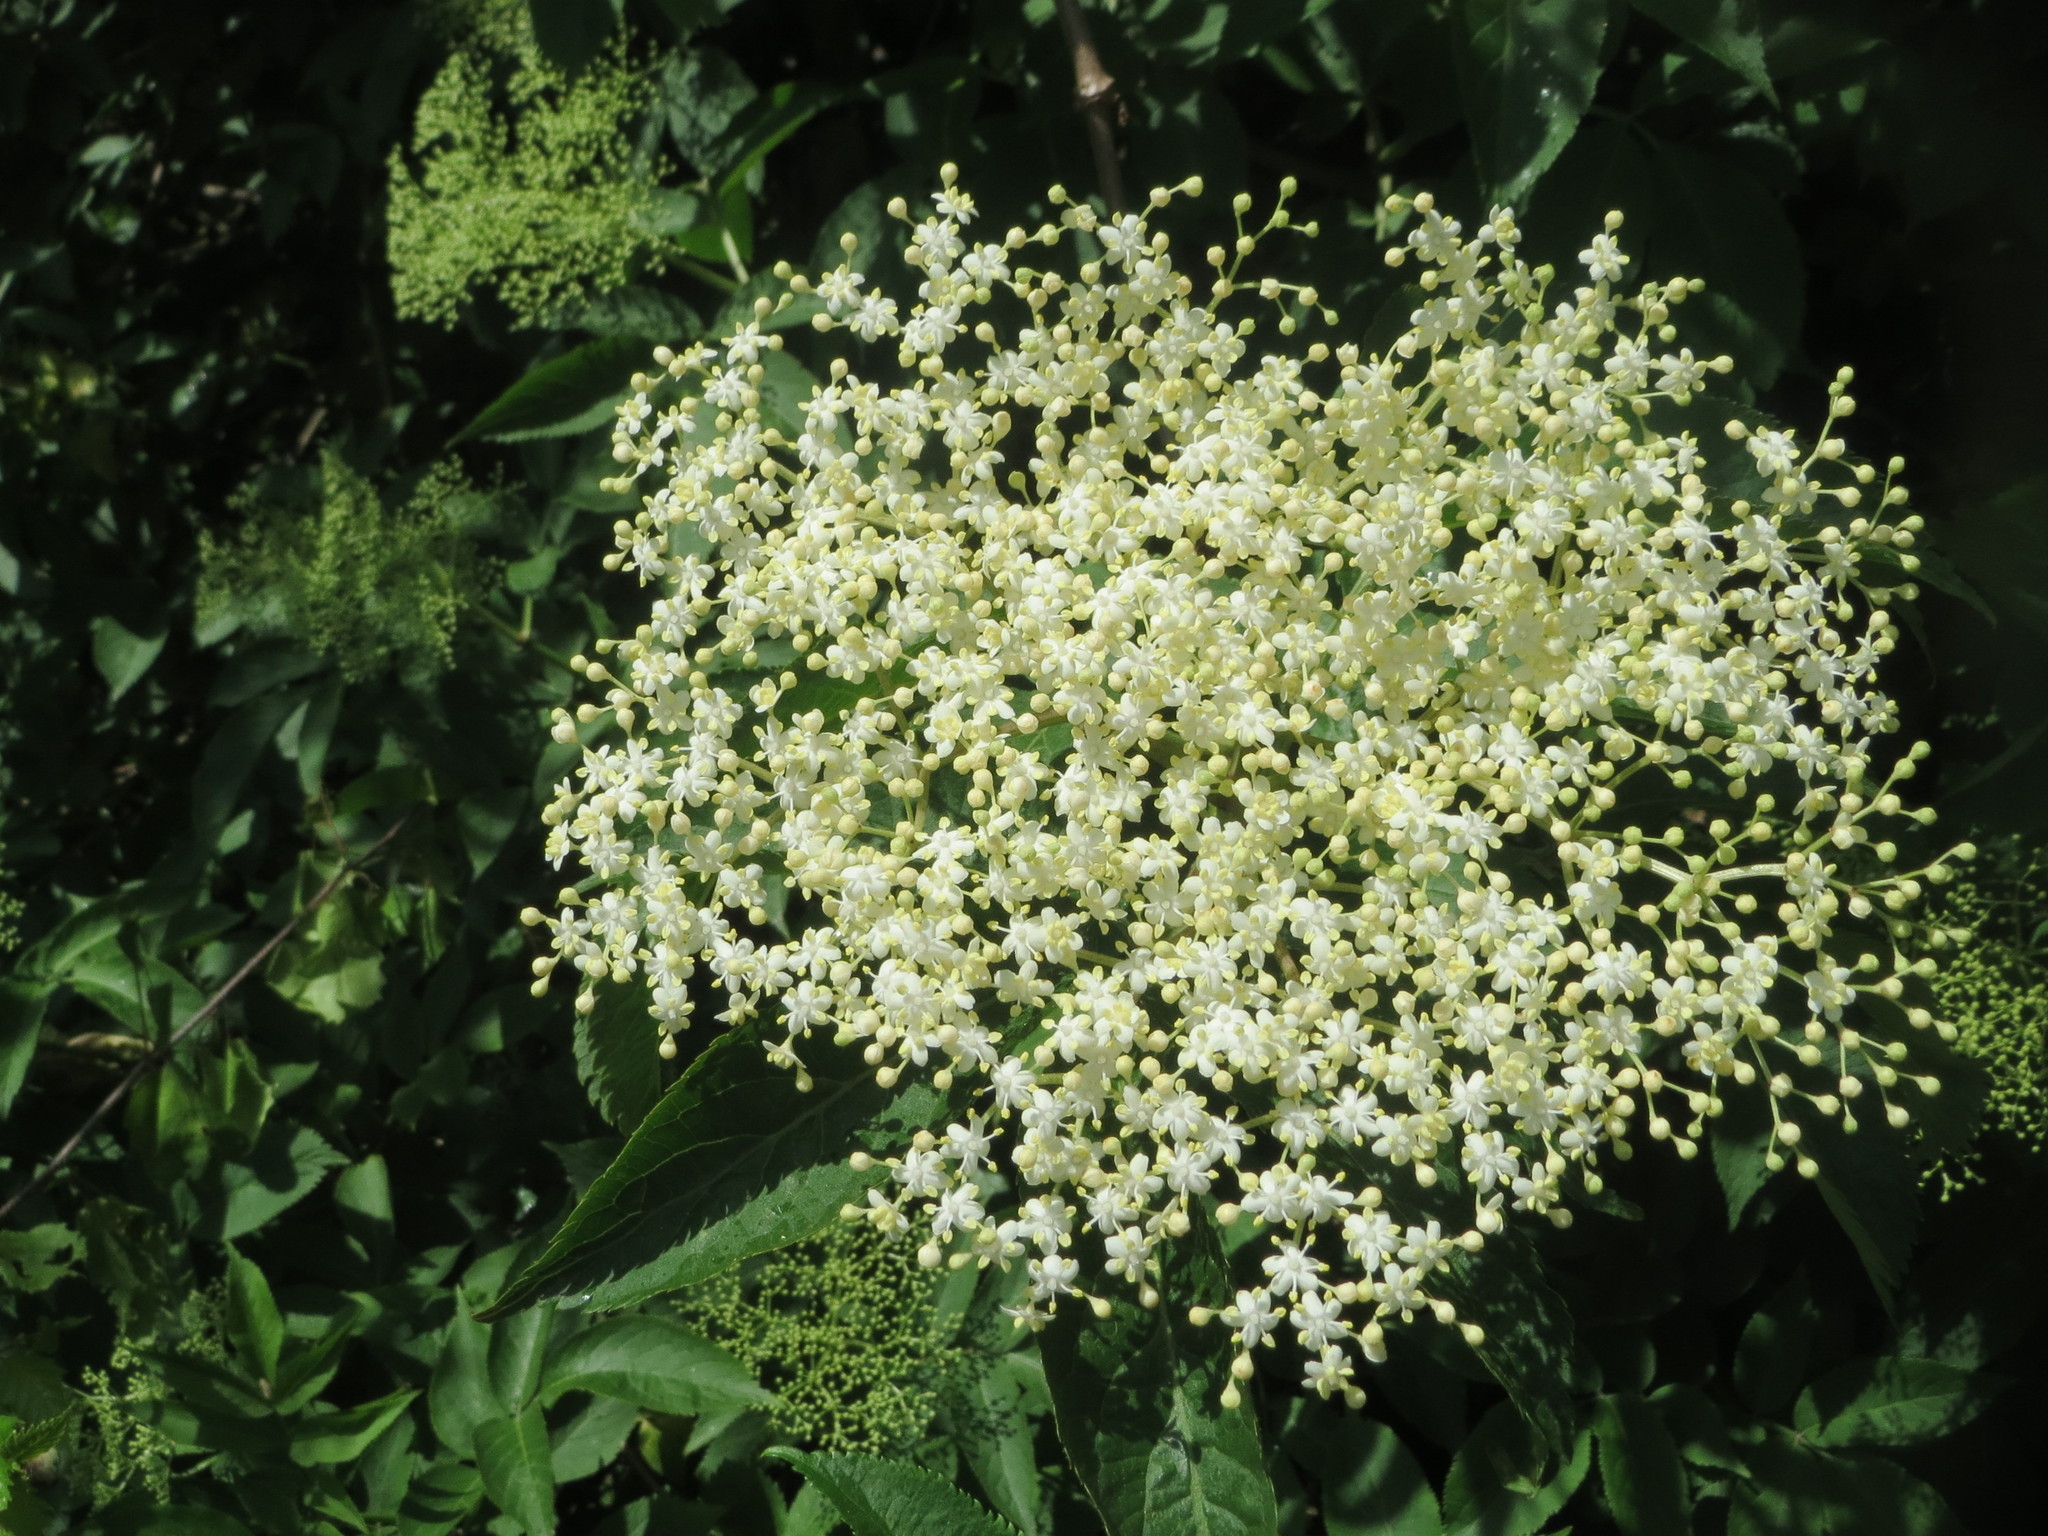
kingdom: Plantae
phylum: Tracheophyta
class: Magnoliopsida
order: Dipsacales
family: Viburnaceae
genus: Sambucus
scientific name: Sambucus nigra
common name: Elder
